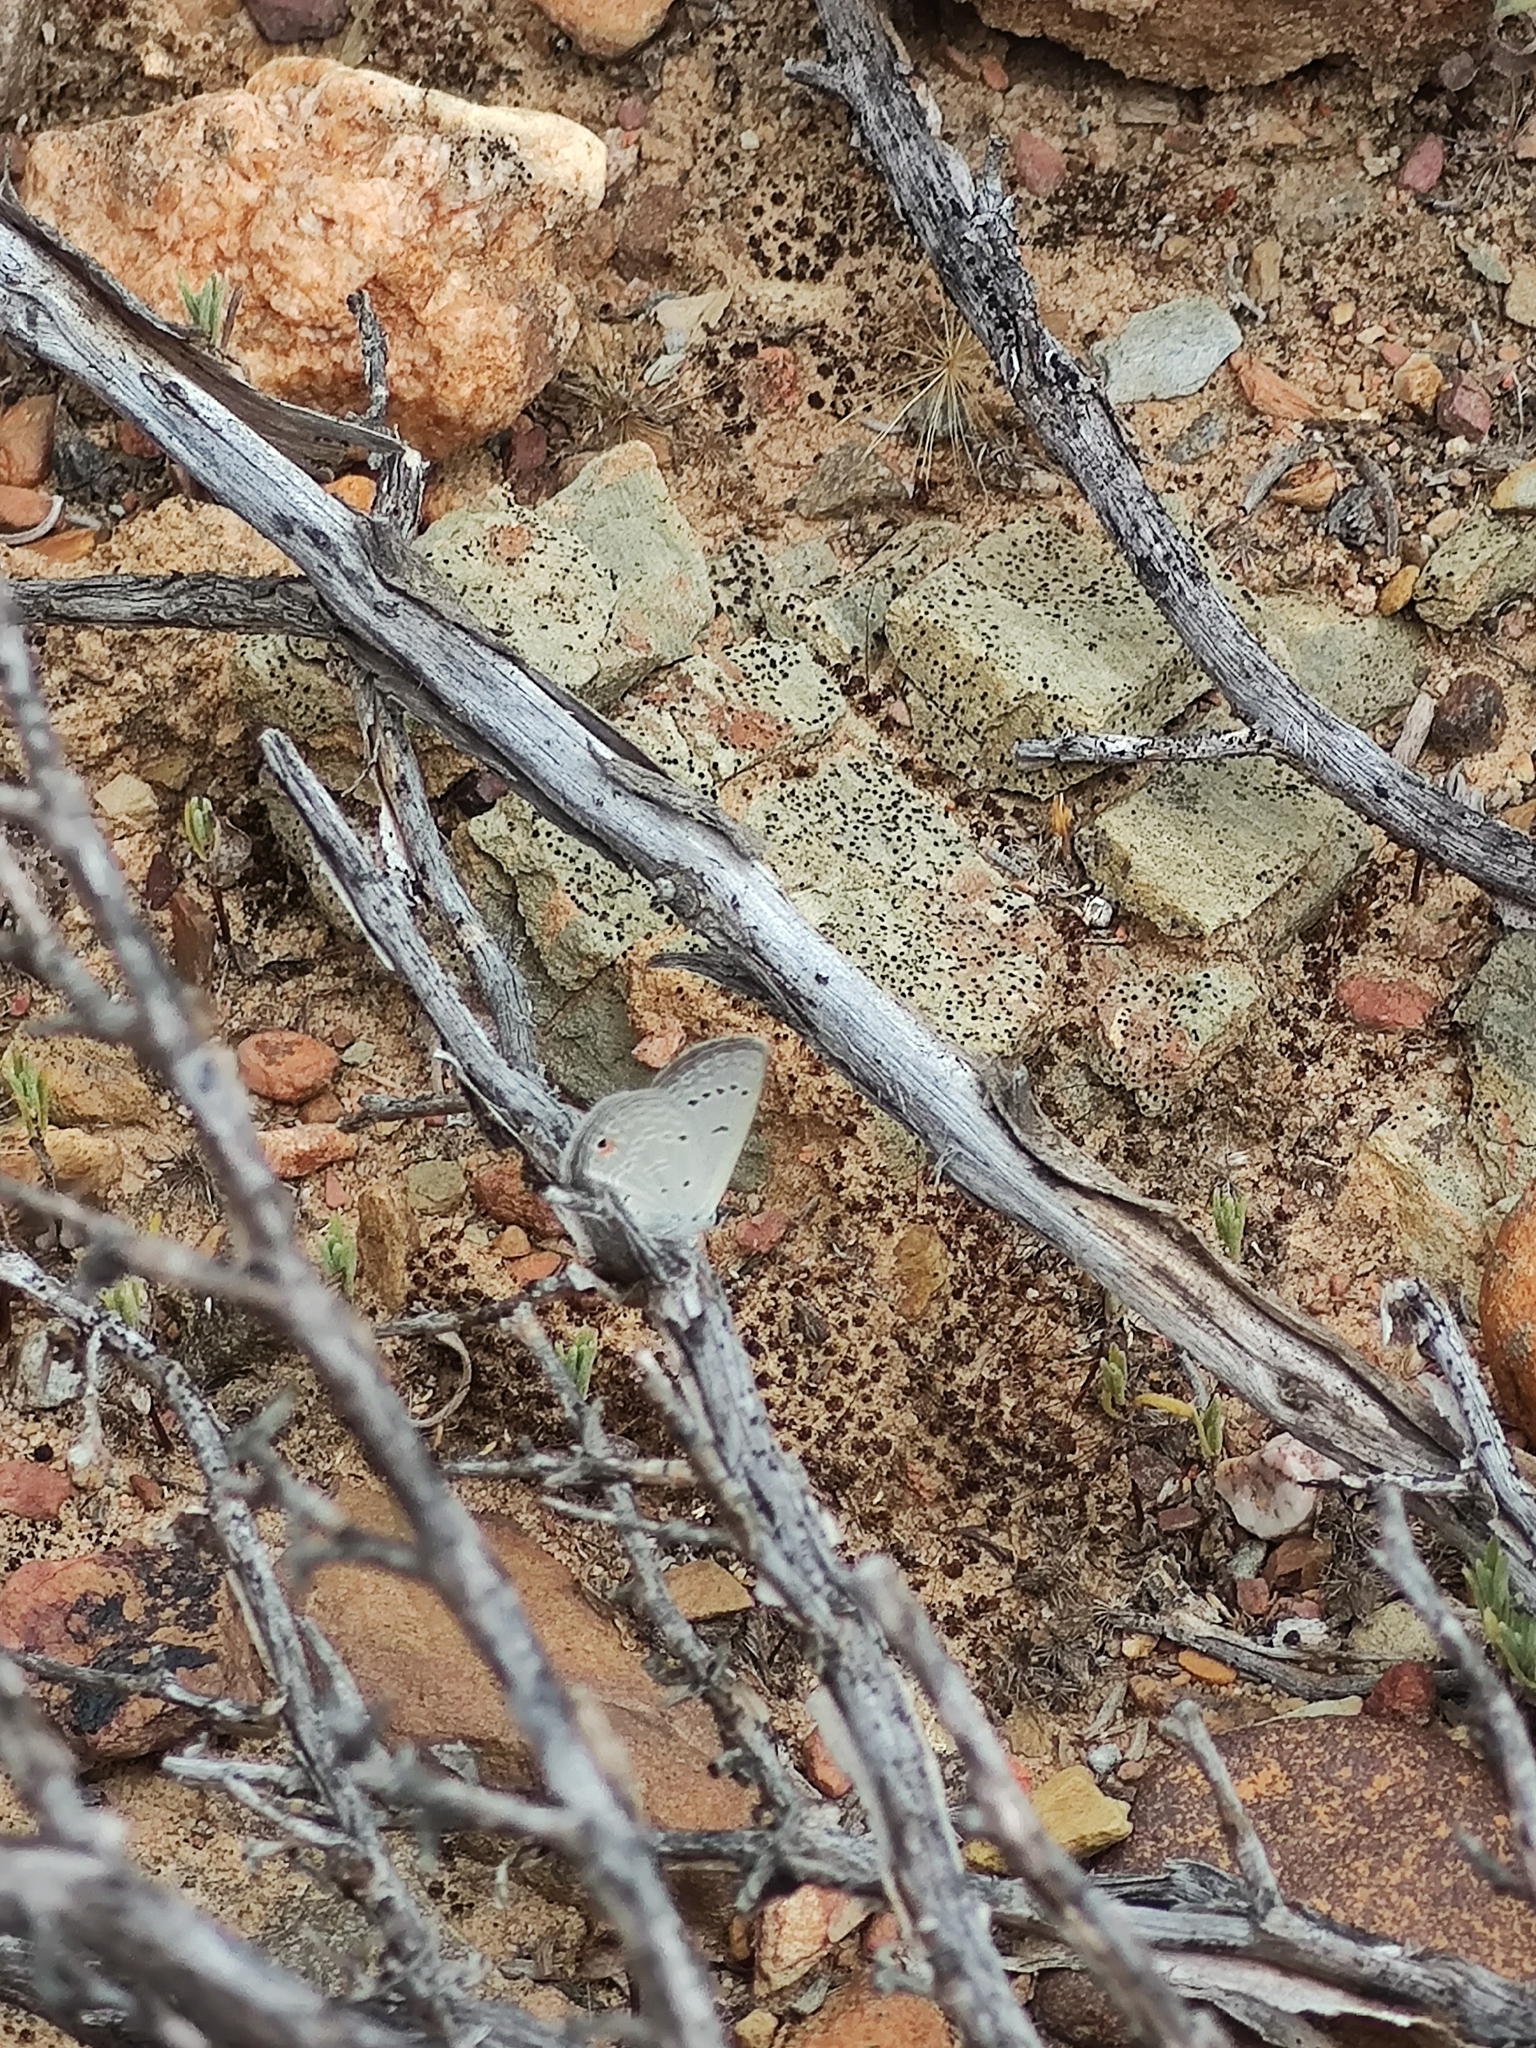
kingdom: Animalia
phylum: Arthropoda
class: Insecta
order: Lepidoptera
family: Lycaenidae
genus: Eicochrysops
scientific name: Eicochrysops messapus
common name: Cupreous blue
